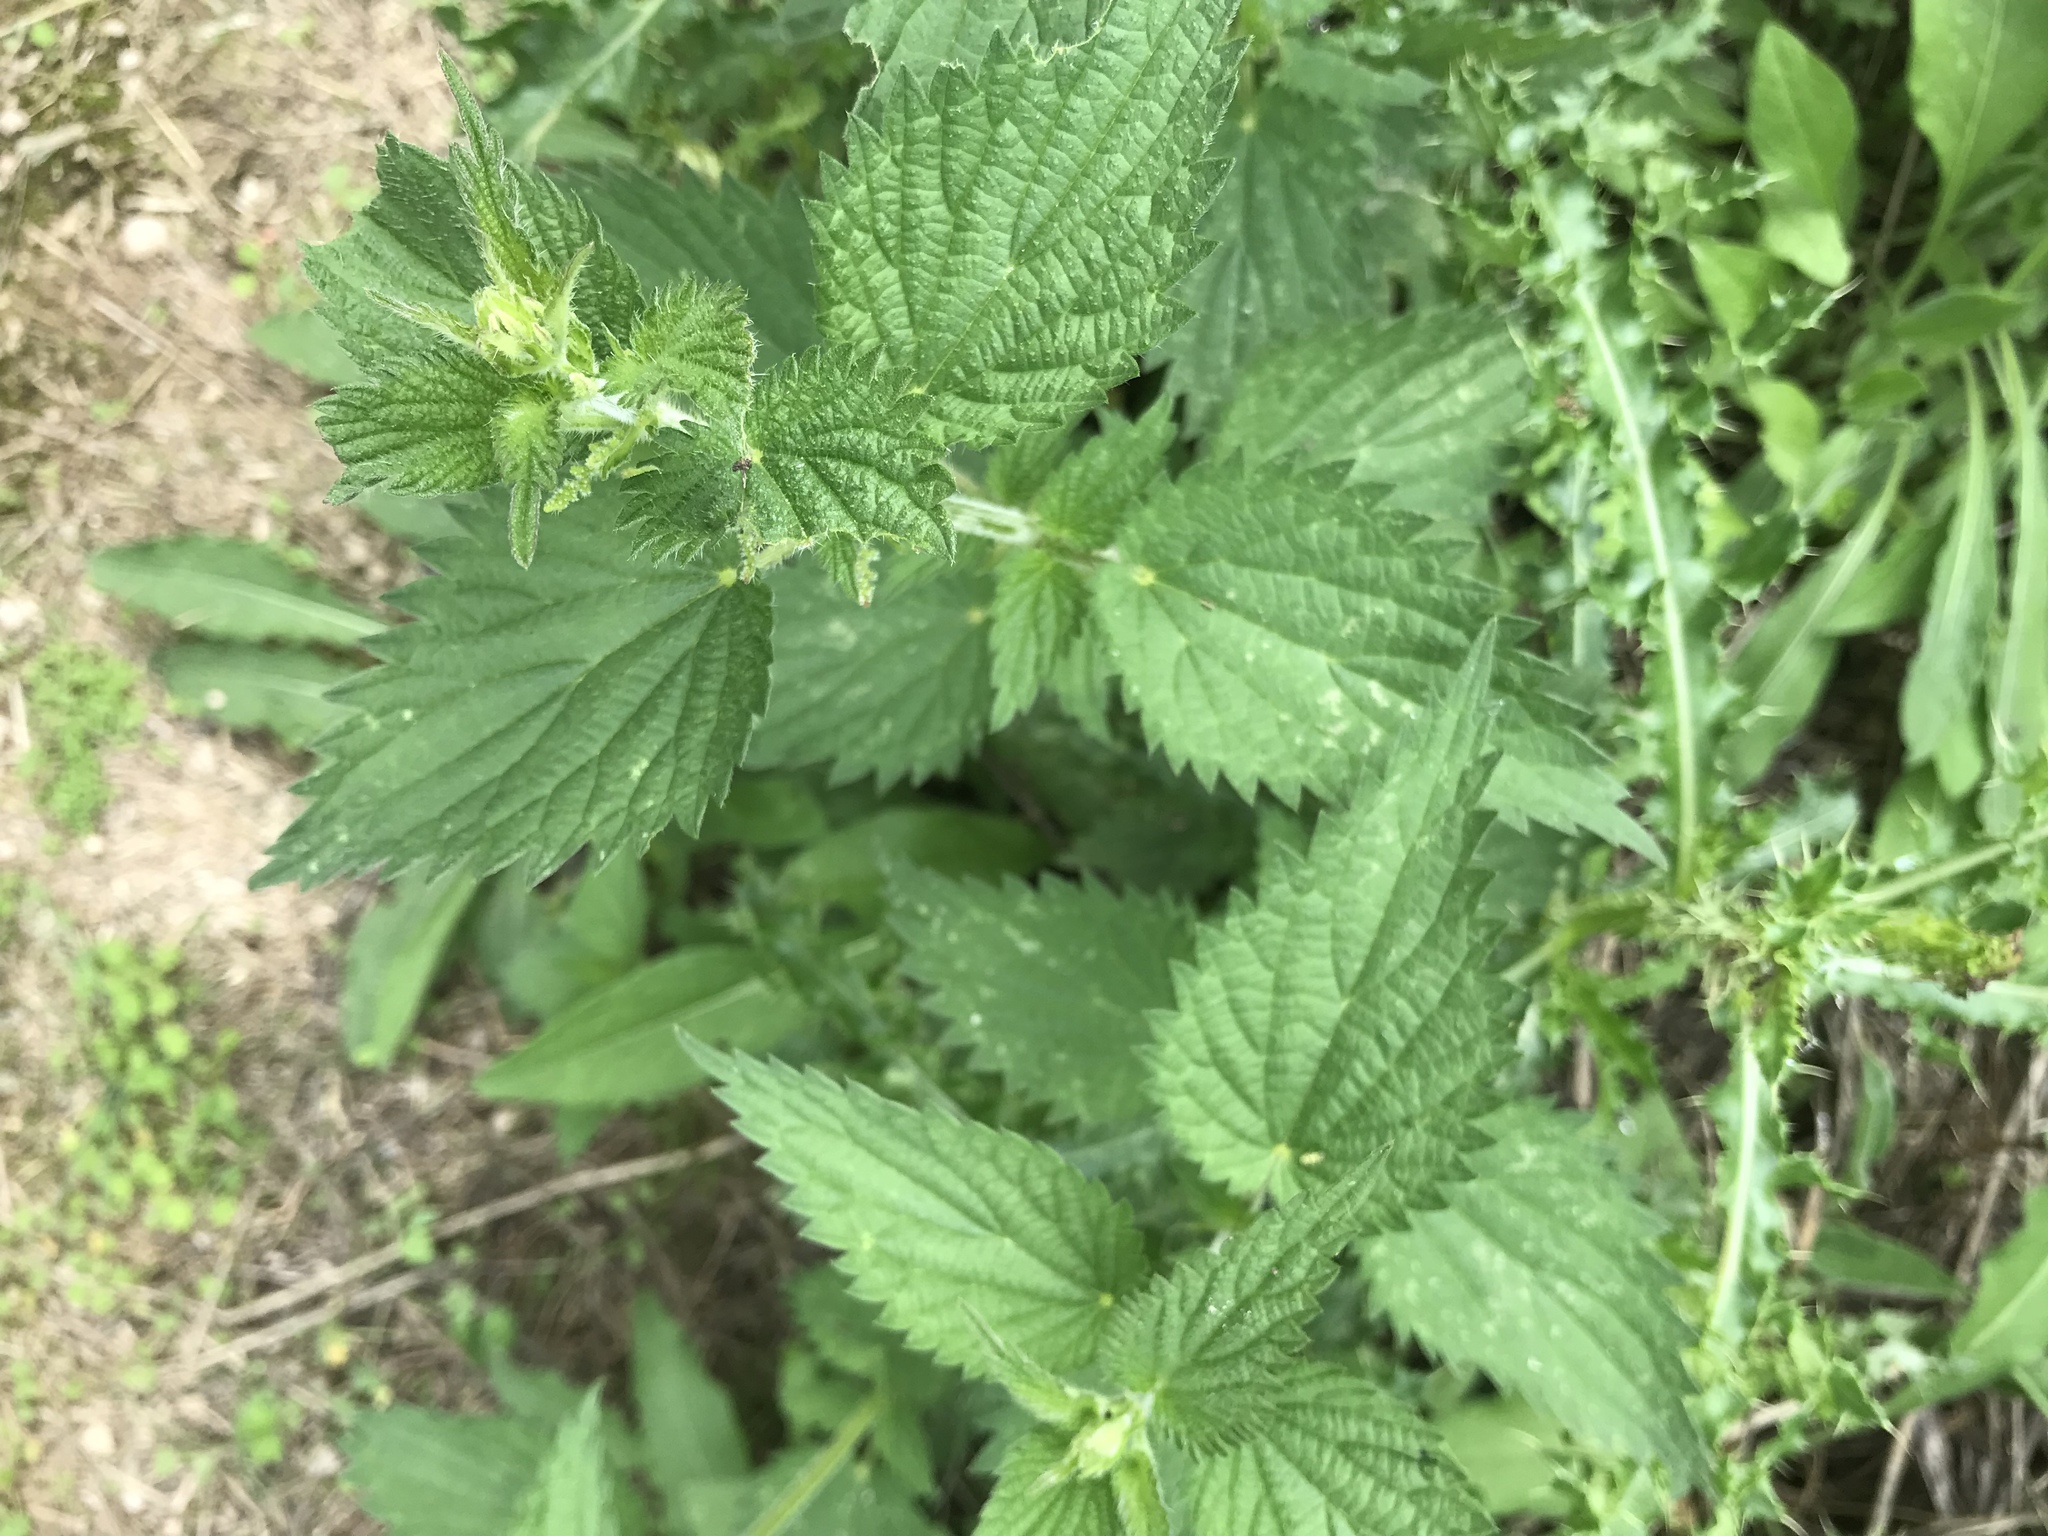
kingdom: Plantae
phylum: Tracheophyta
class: Magnoliopsida
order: Rosales
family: Urticaceae
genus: Urtica
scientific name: Urtica dioica
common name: Common nettle
